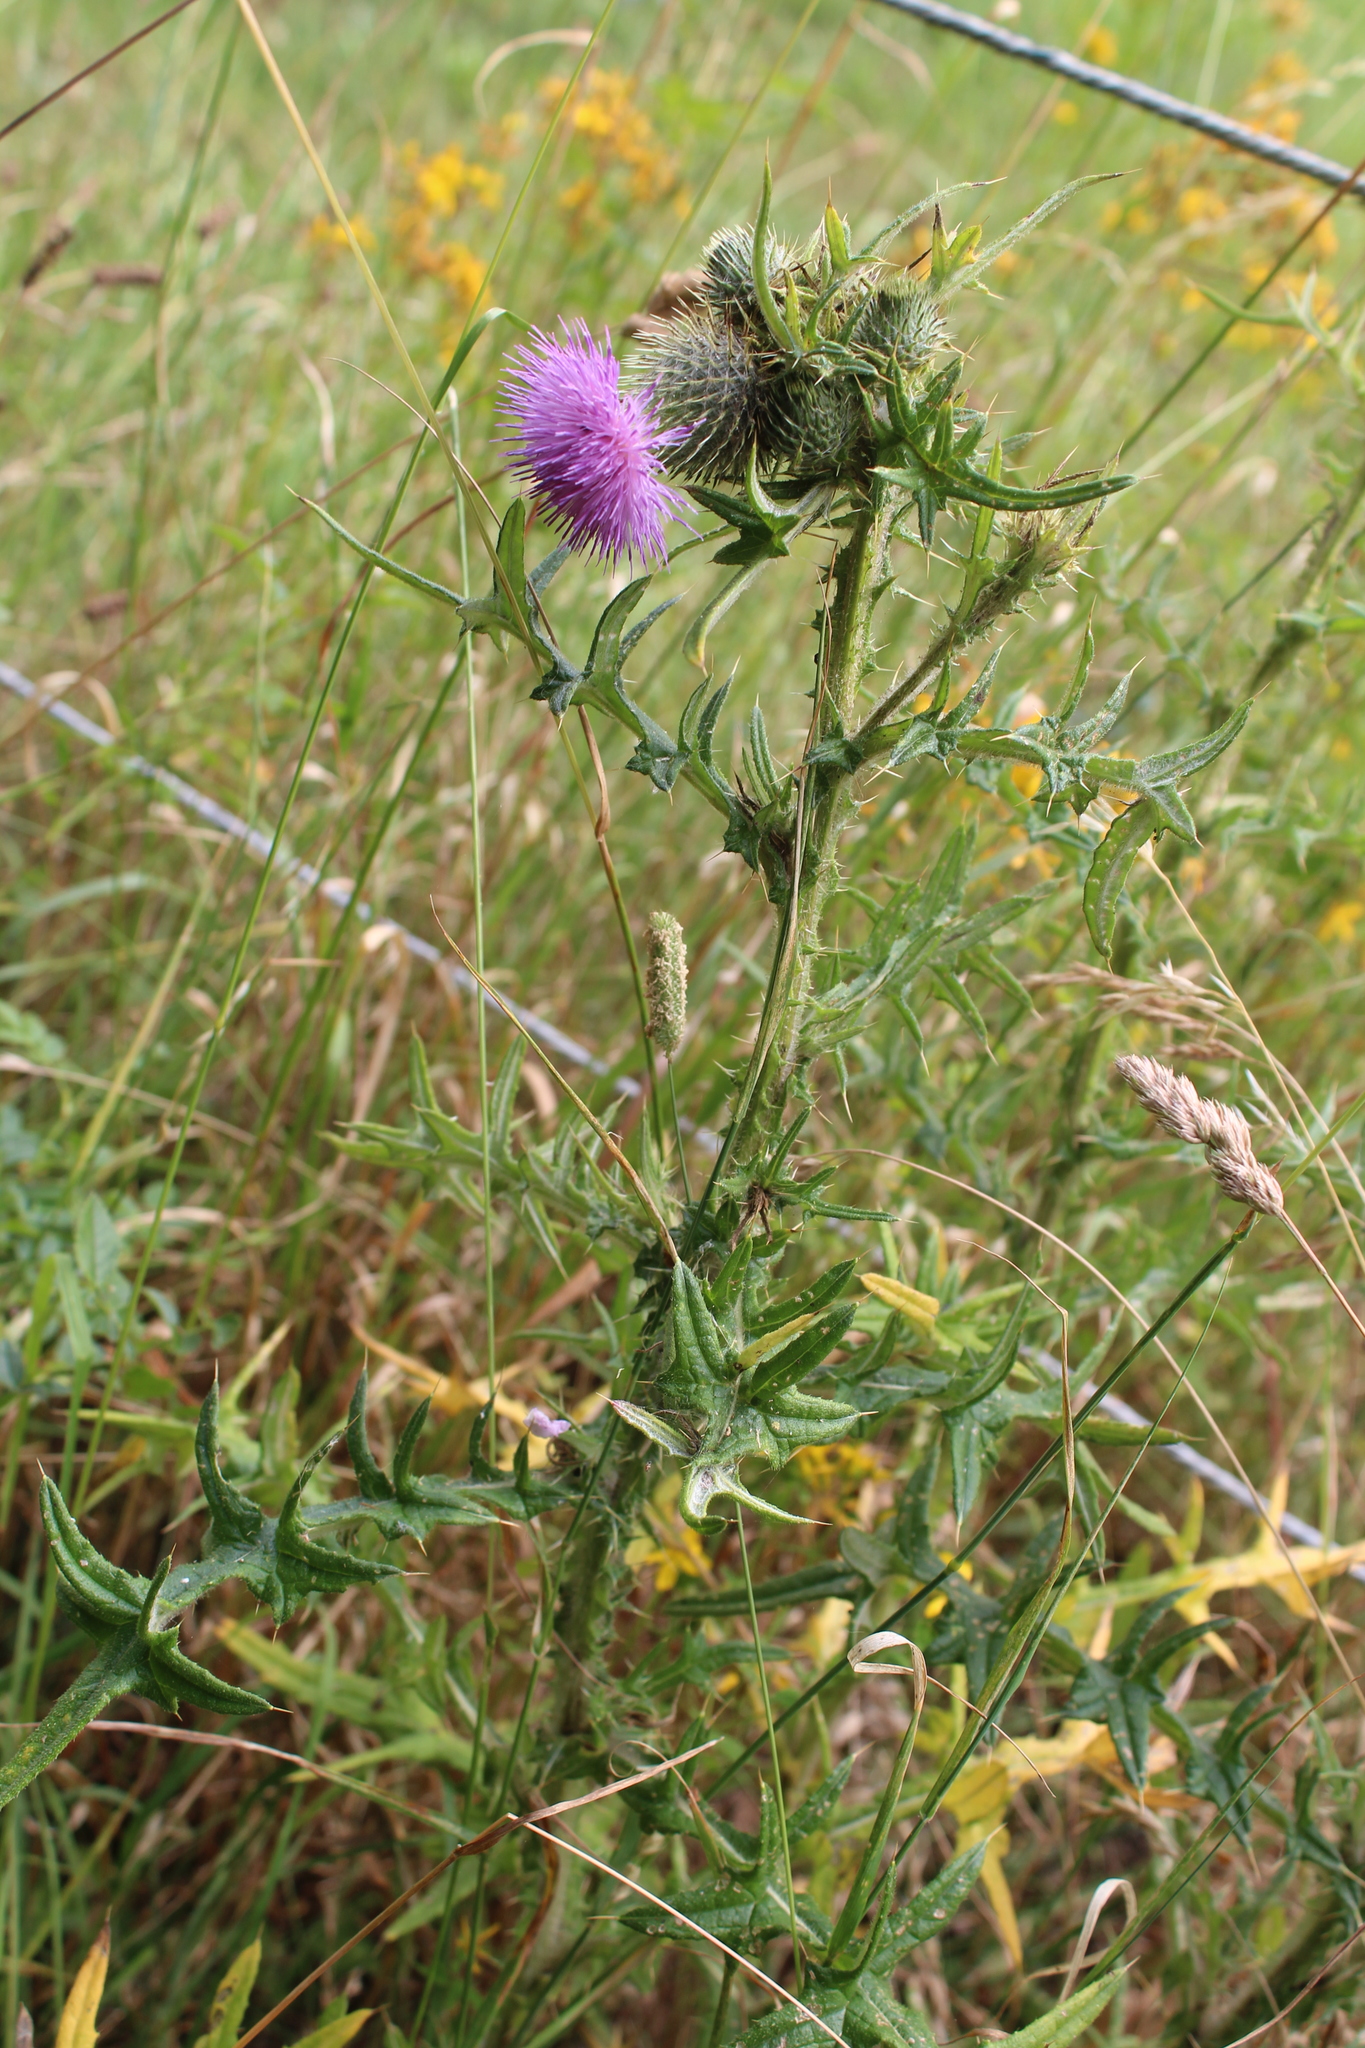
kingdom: Plantae
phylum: Tracheophyta
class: Magnoliopsida
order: Asterales
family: Asteraceae
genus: Cirsium
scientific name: Cirsium vulgare
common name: Bull thistle
